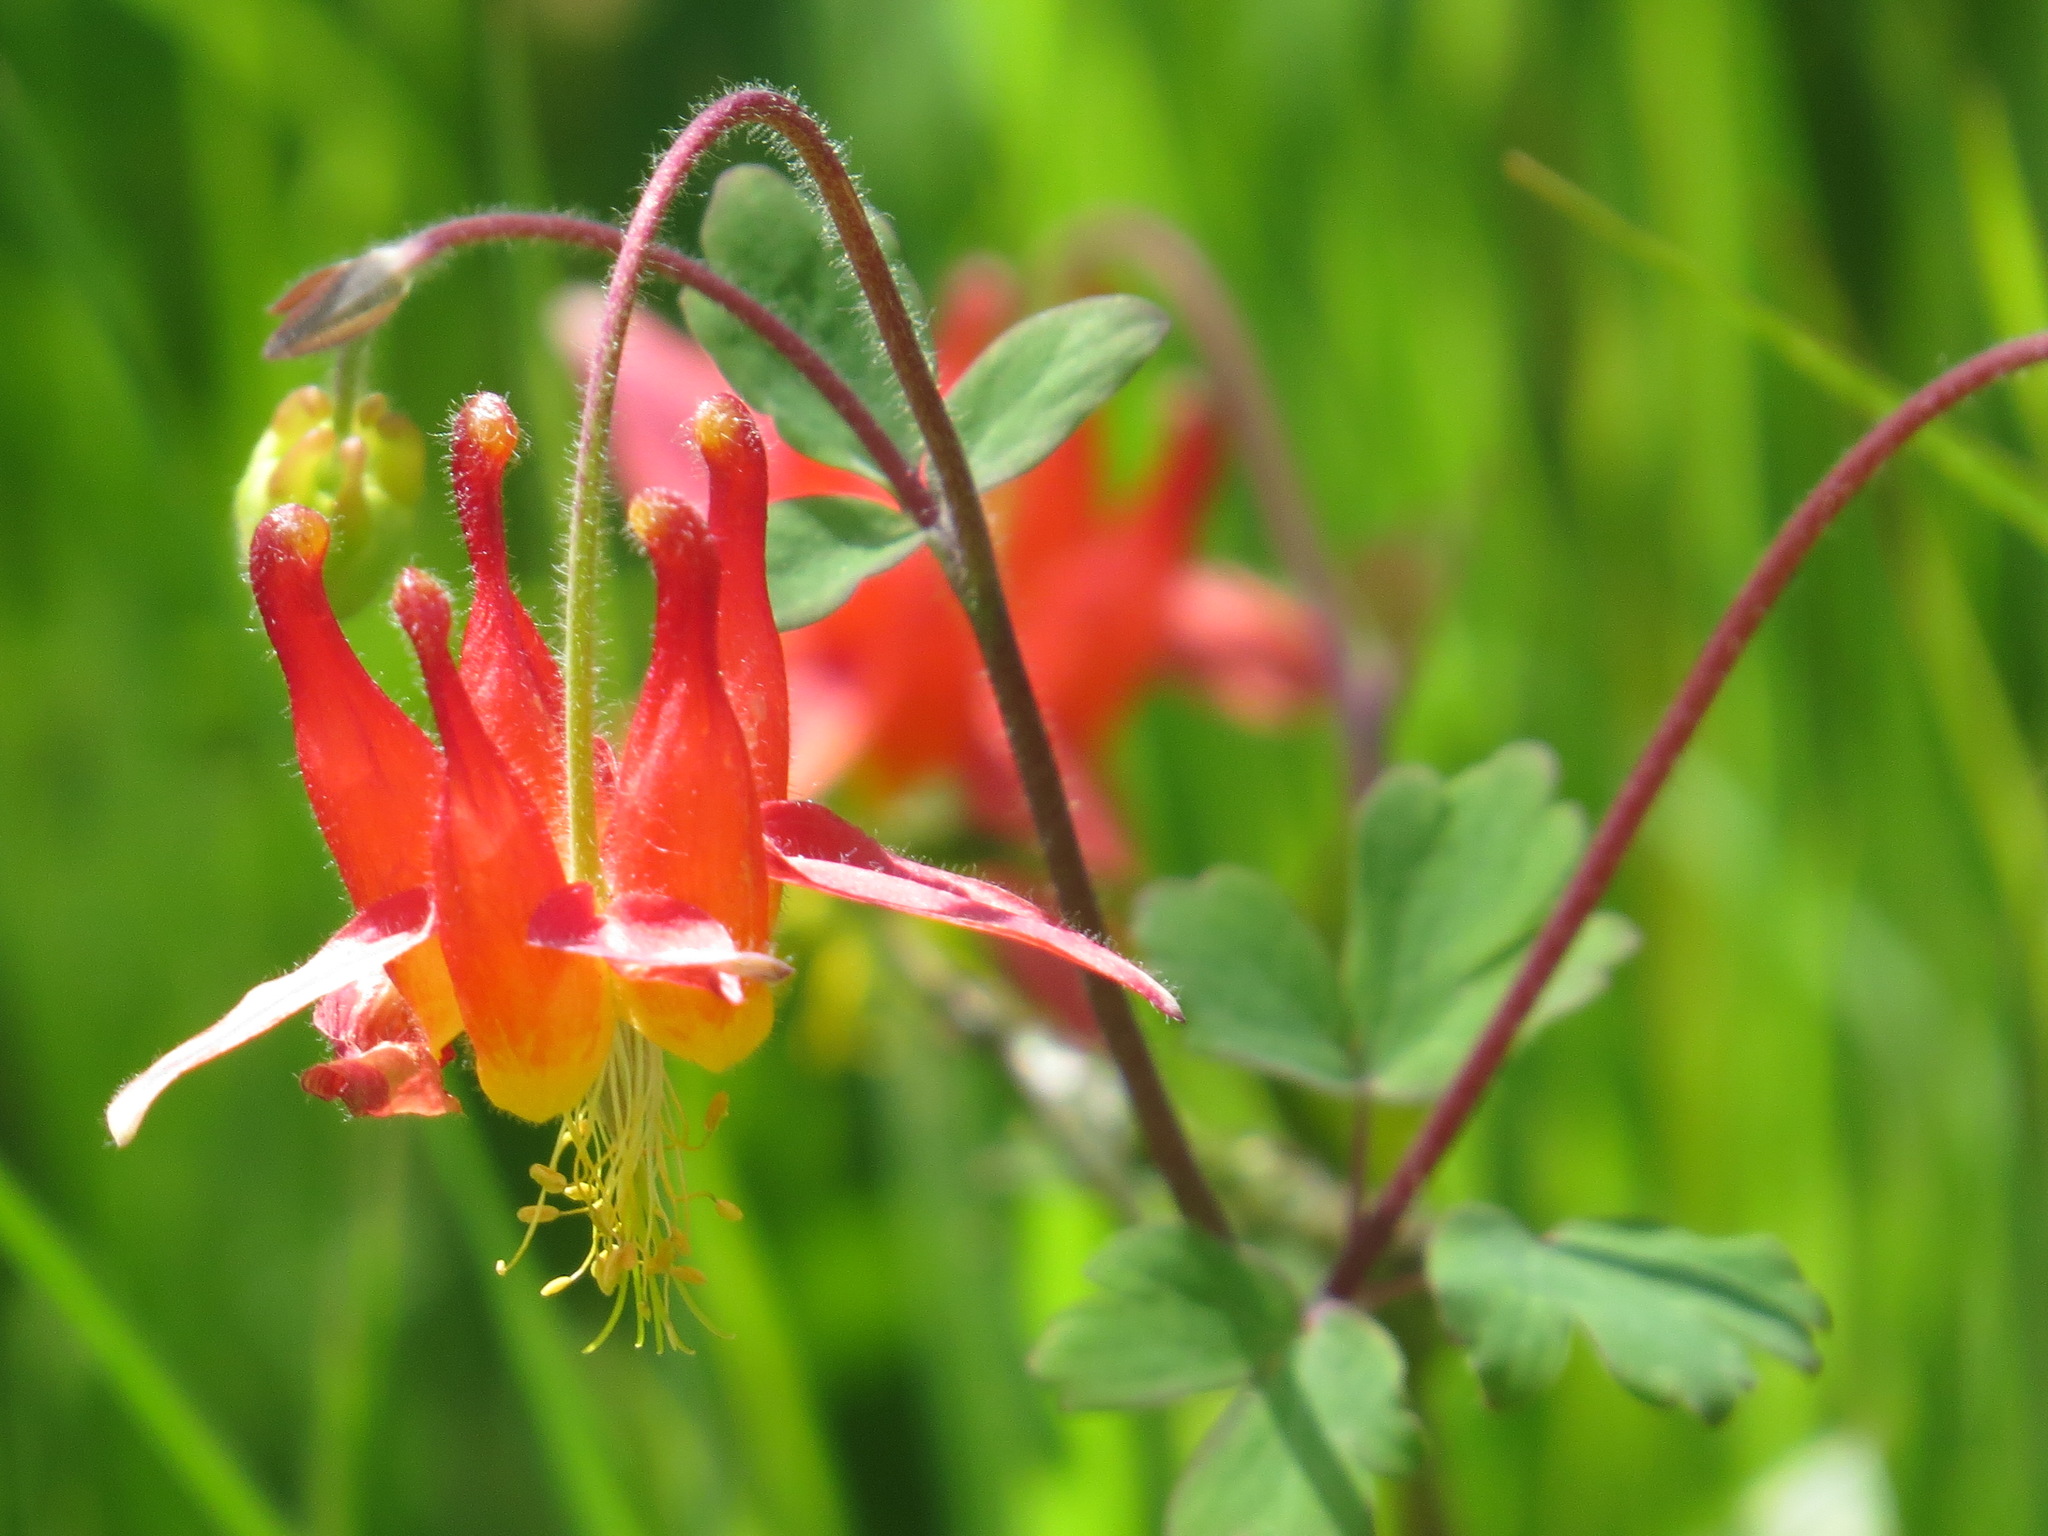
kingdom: Plantae
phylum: Tracheophyta
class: Magnoliopsida
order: Ranunculales
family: Ranunculaceae
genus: Aquilegia
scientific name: Aquilegia formosa
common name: Sitka columbine
